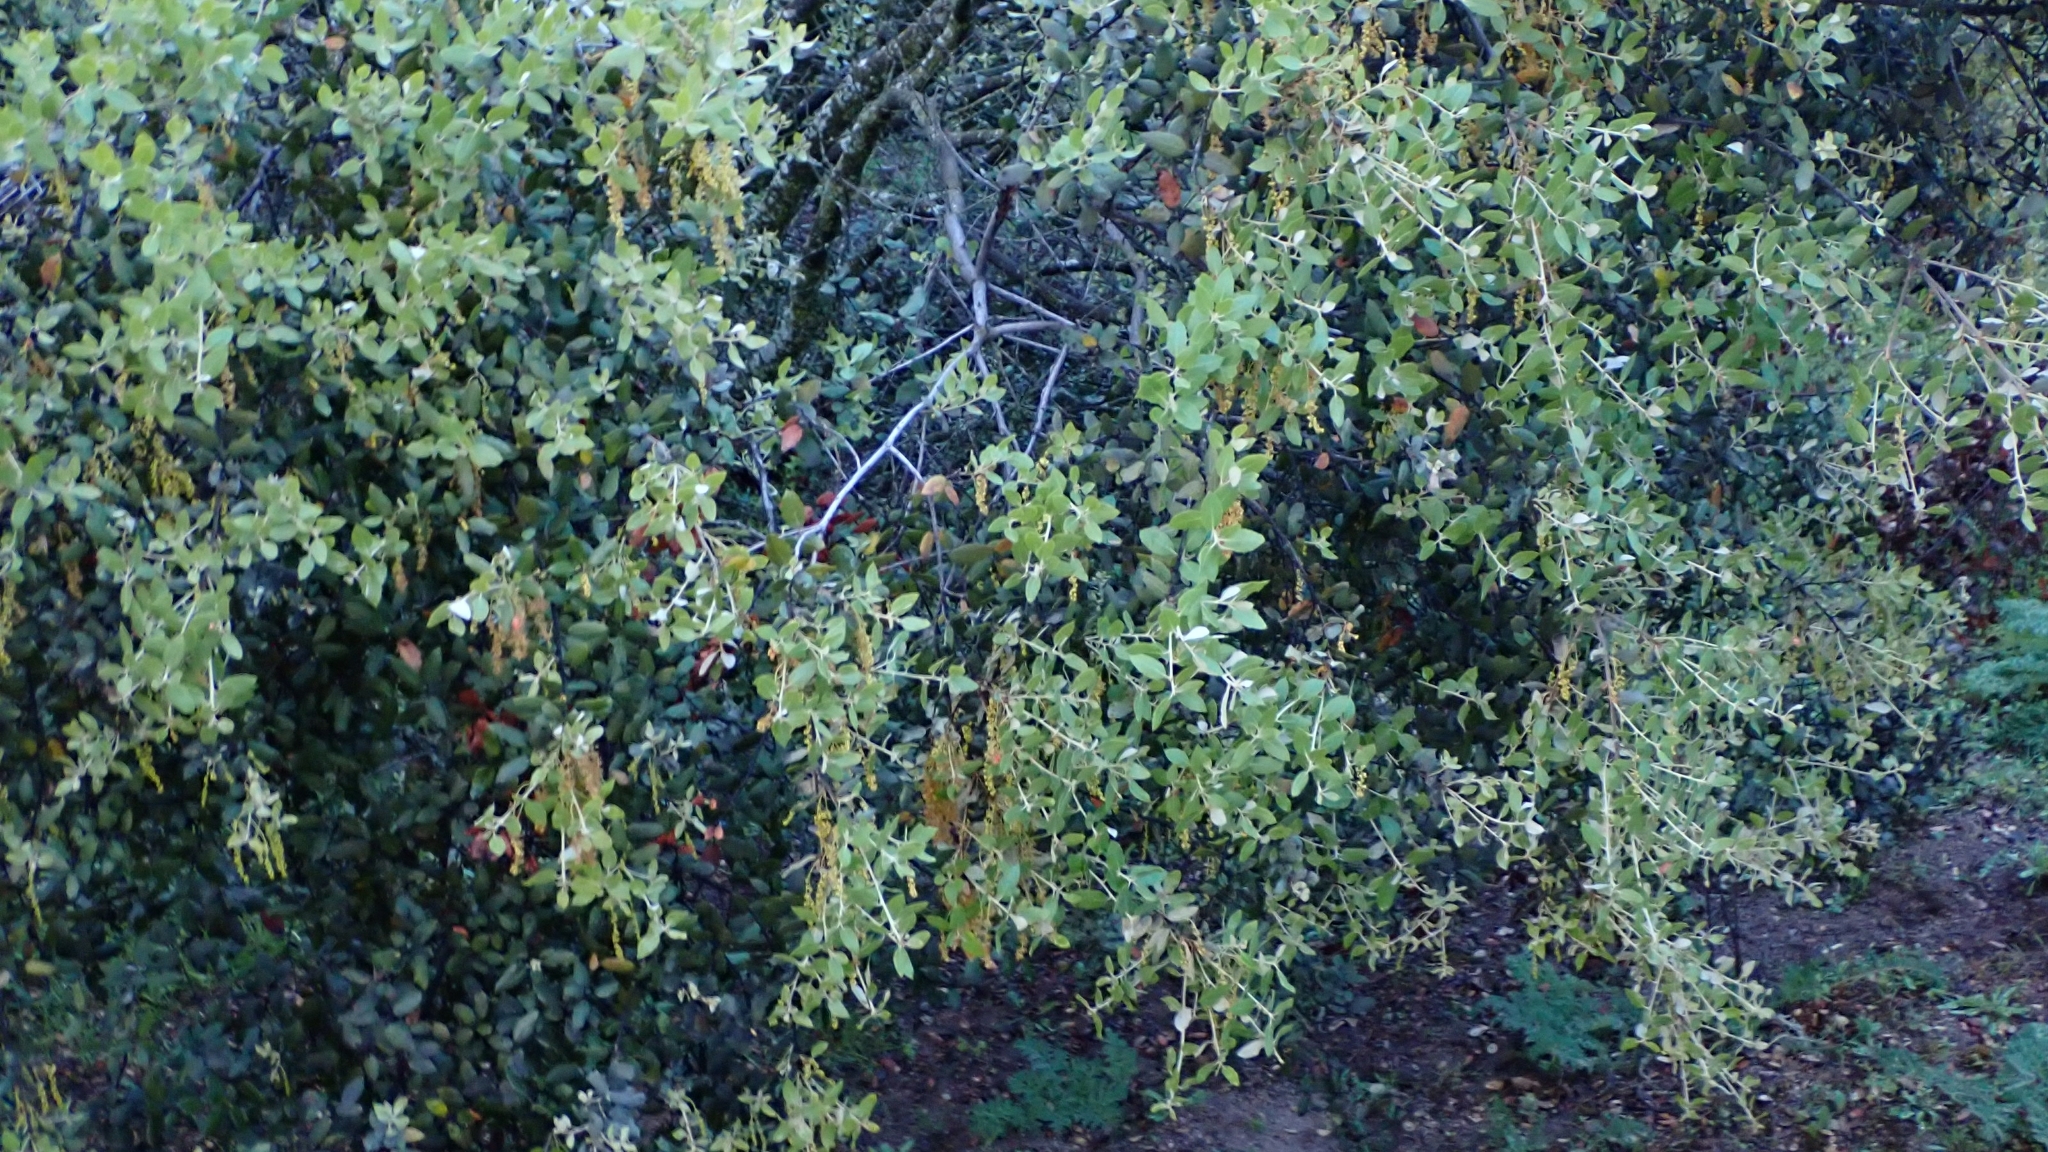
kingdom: Plantae
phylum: Tracheophyta
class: Magnoliopsida
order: Fagales
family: Fagaceae
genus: Quercus
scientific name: Quercus rotundifolia
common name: Holm oak
